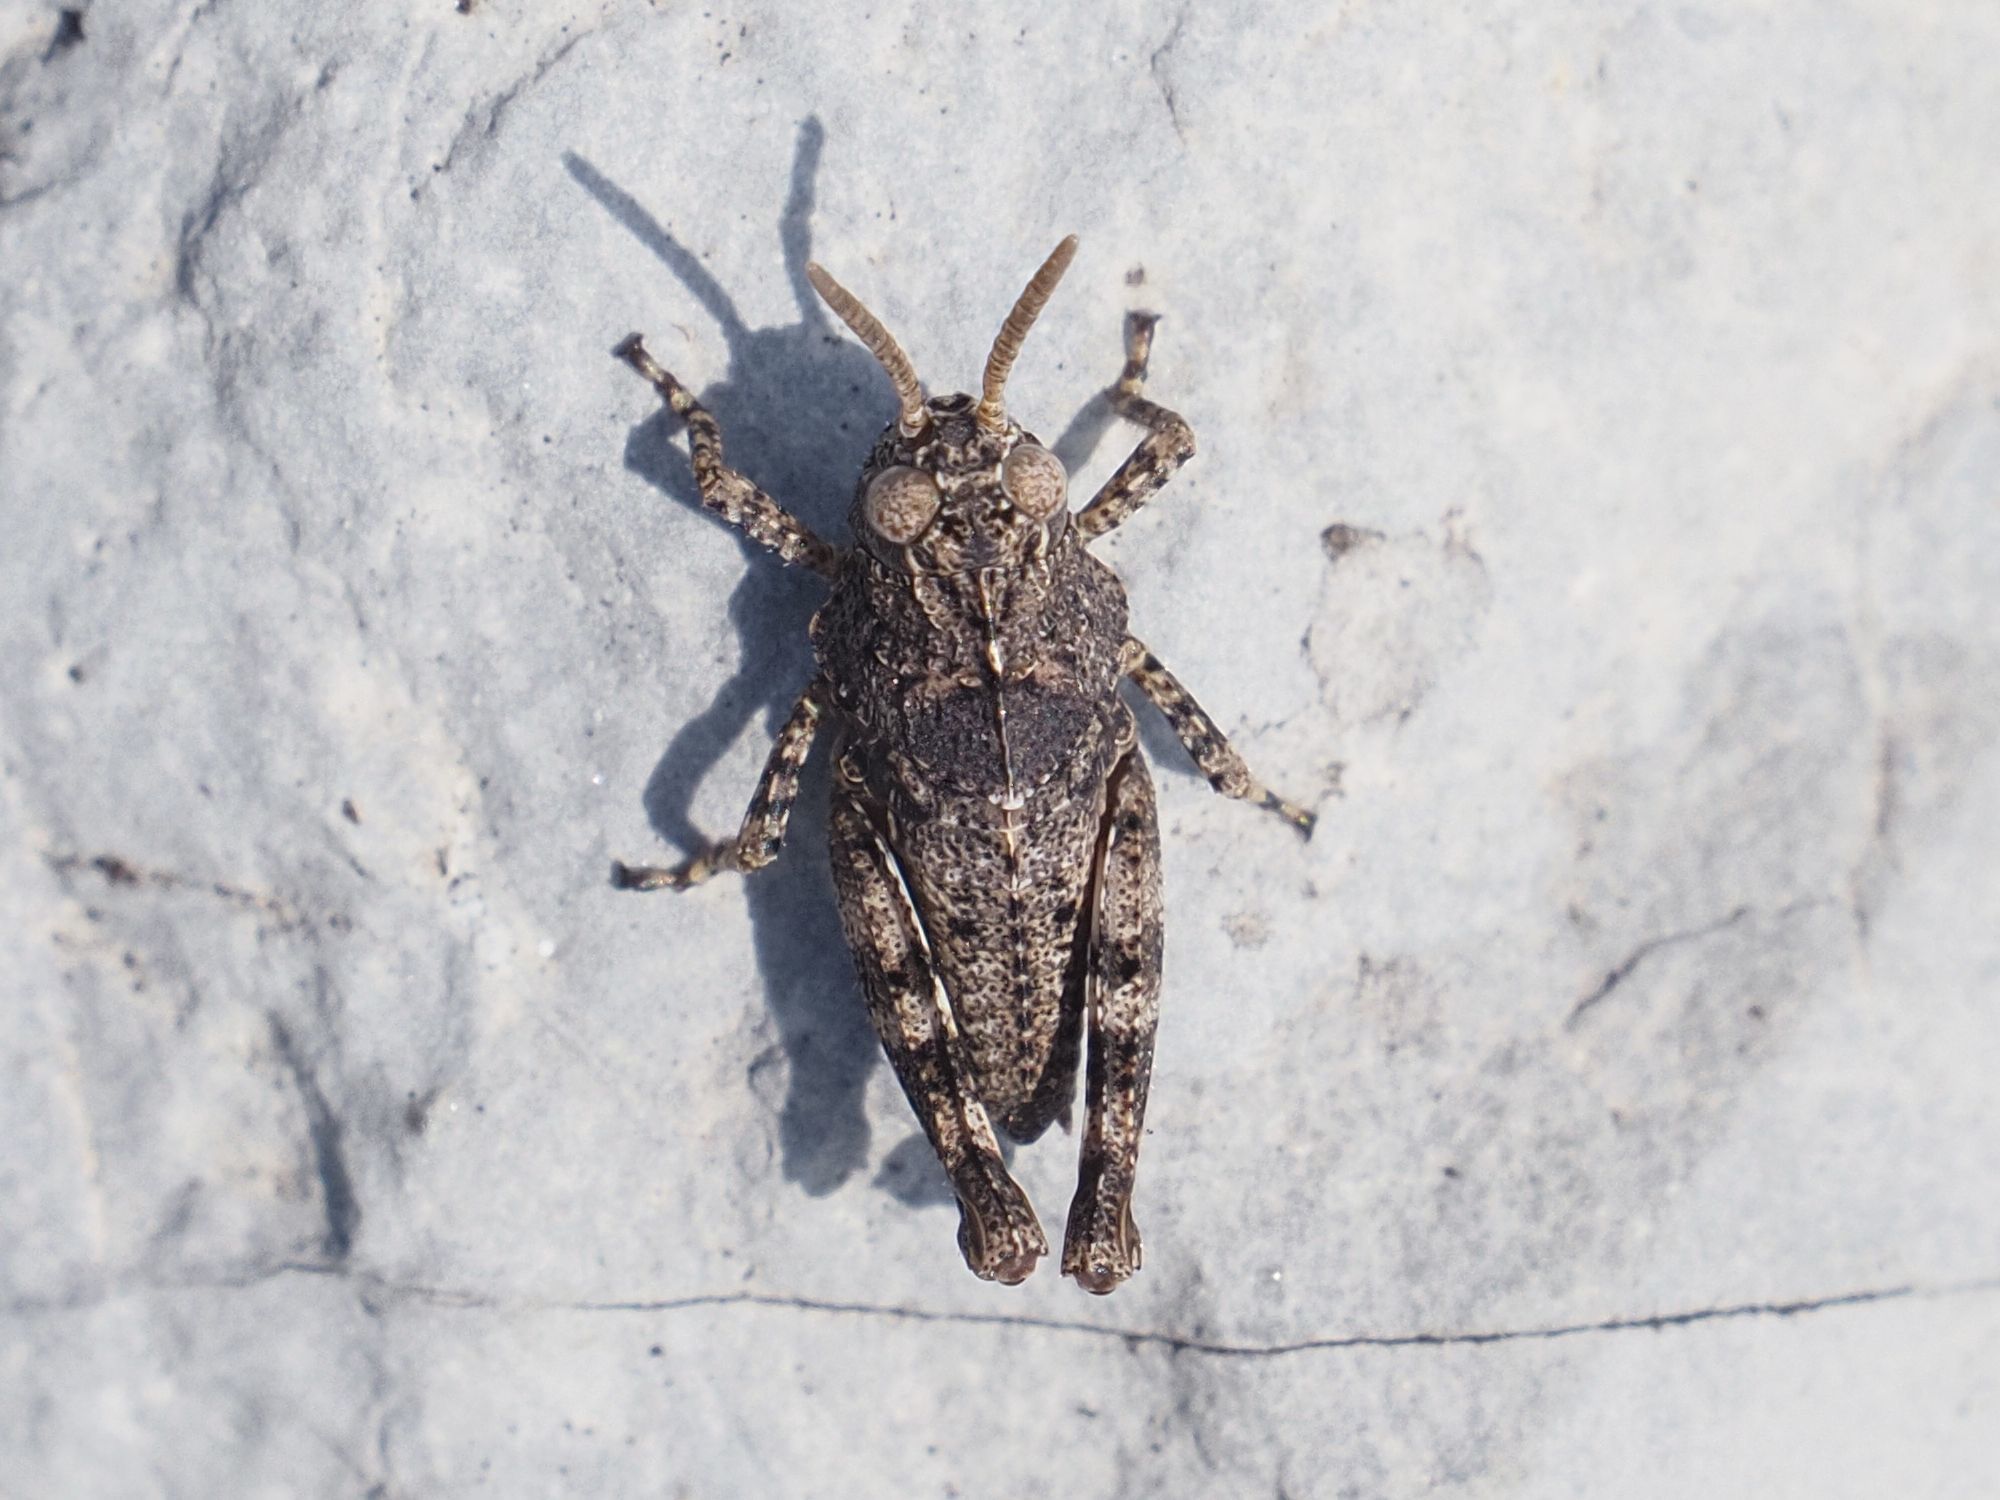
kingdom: Animalia
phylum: Arthropoda
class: Insecta
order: Orthoptera
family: Acrididae
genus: Oedipoda
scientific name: Oedipoda caerulescens
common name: Blue-winged grasshopper
